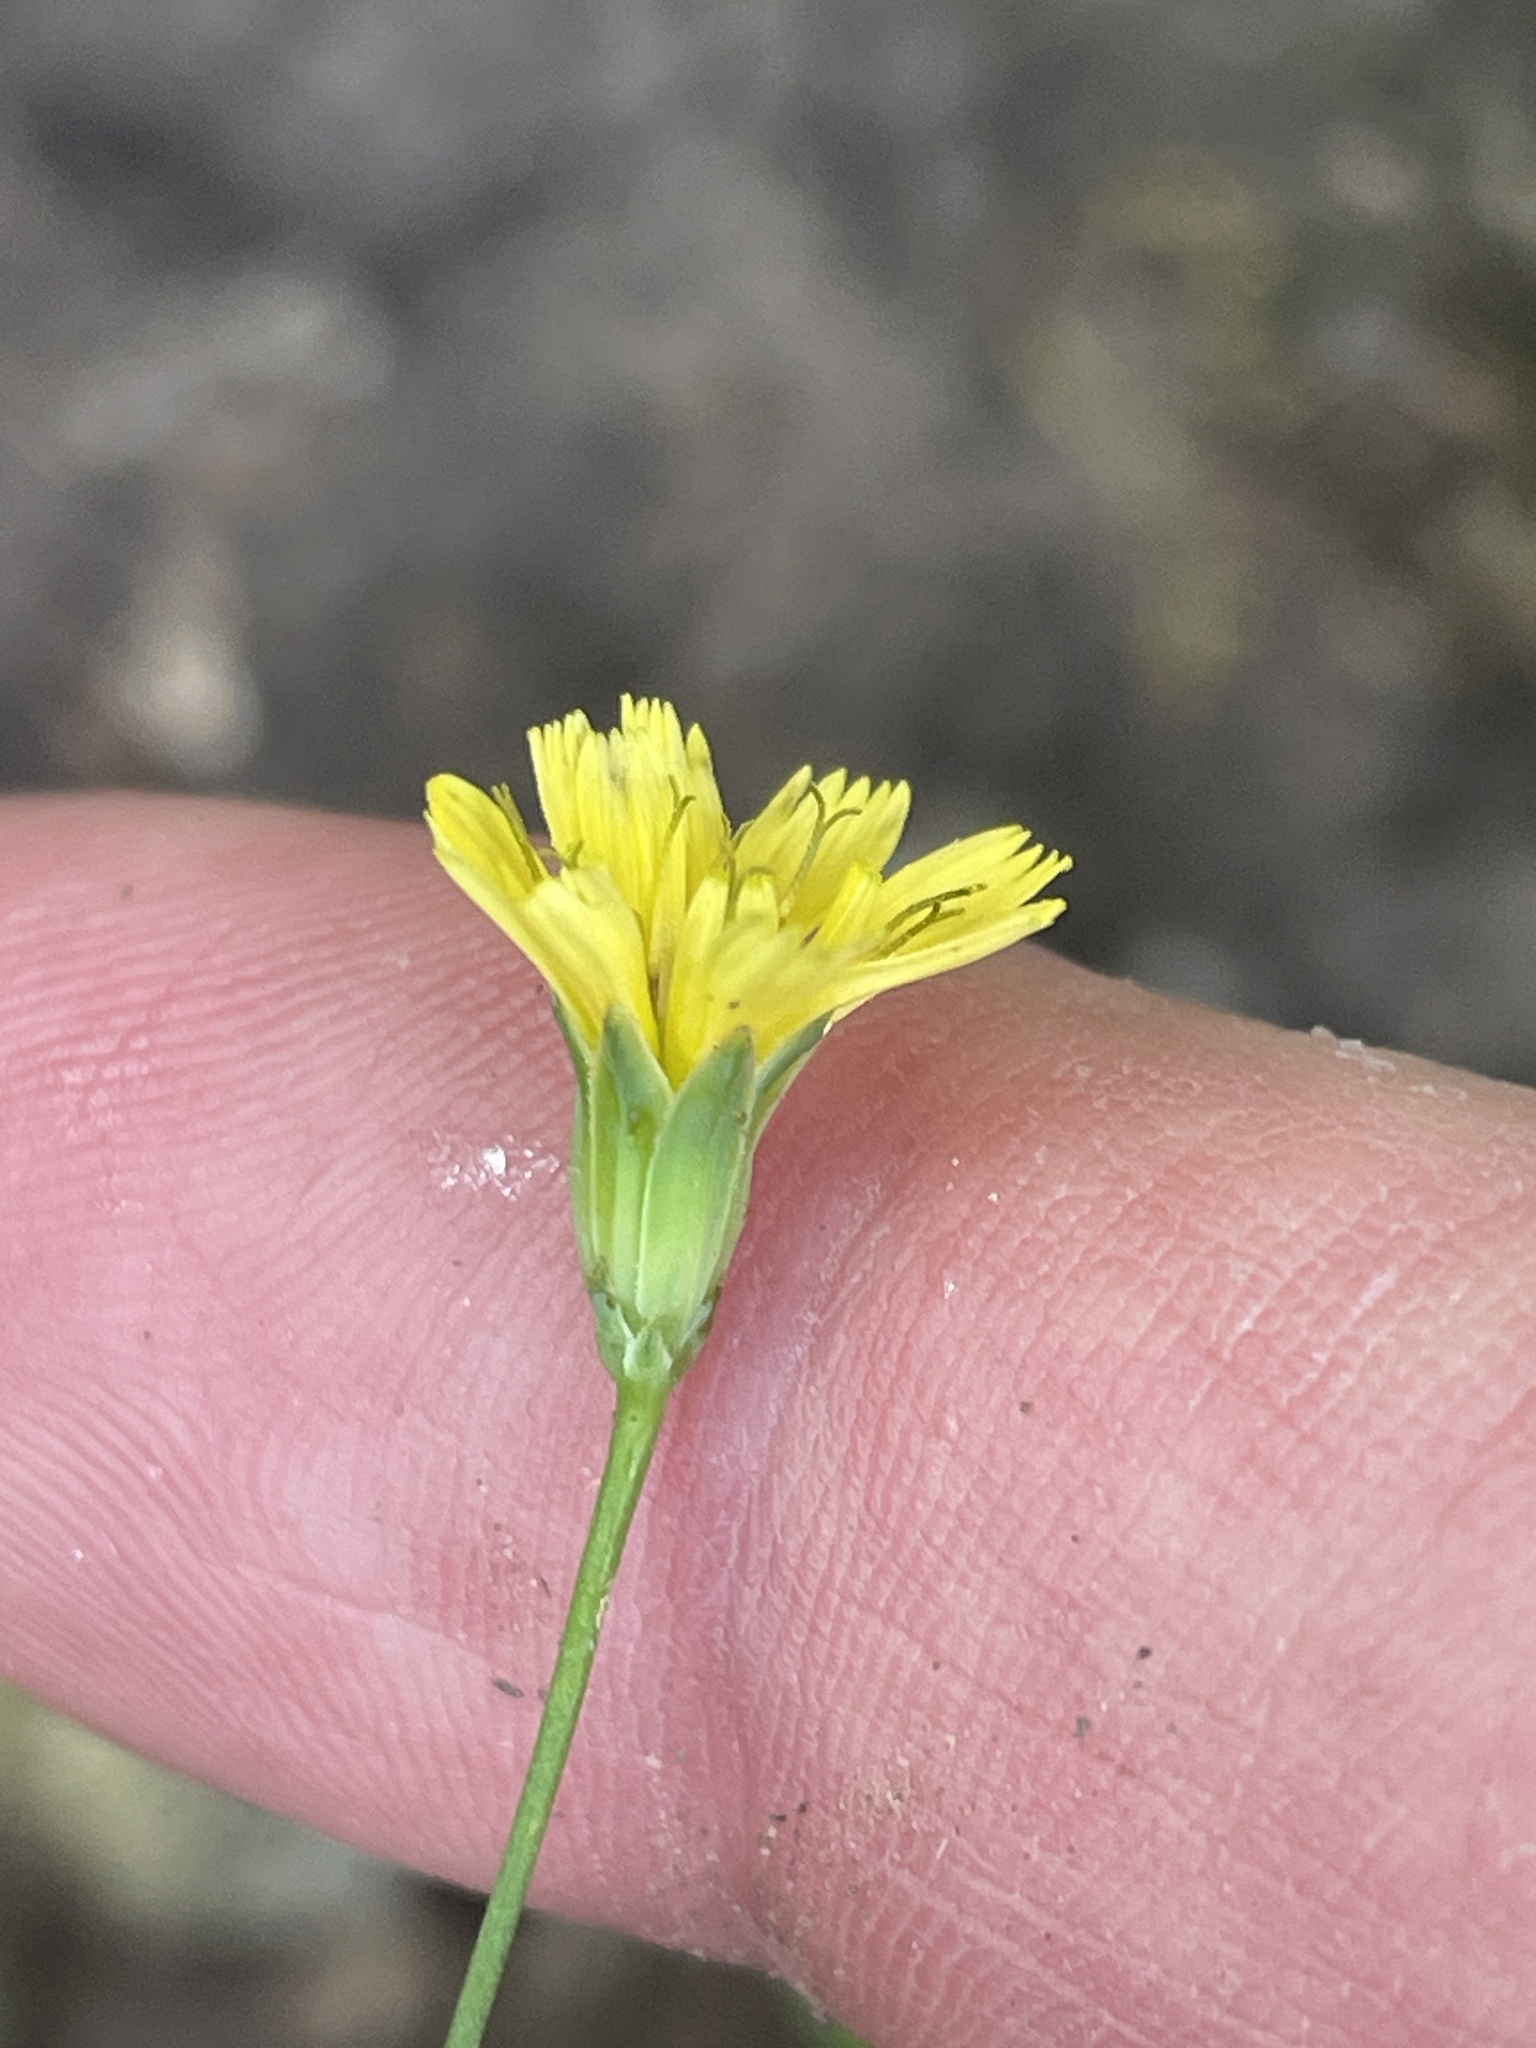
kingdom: Plantae
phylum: Tracheophyta
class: Magnoliopsida
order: Asterales
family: Asteraceae
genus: Lapsana
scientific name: Lapsana communis
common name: Nipplewort
